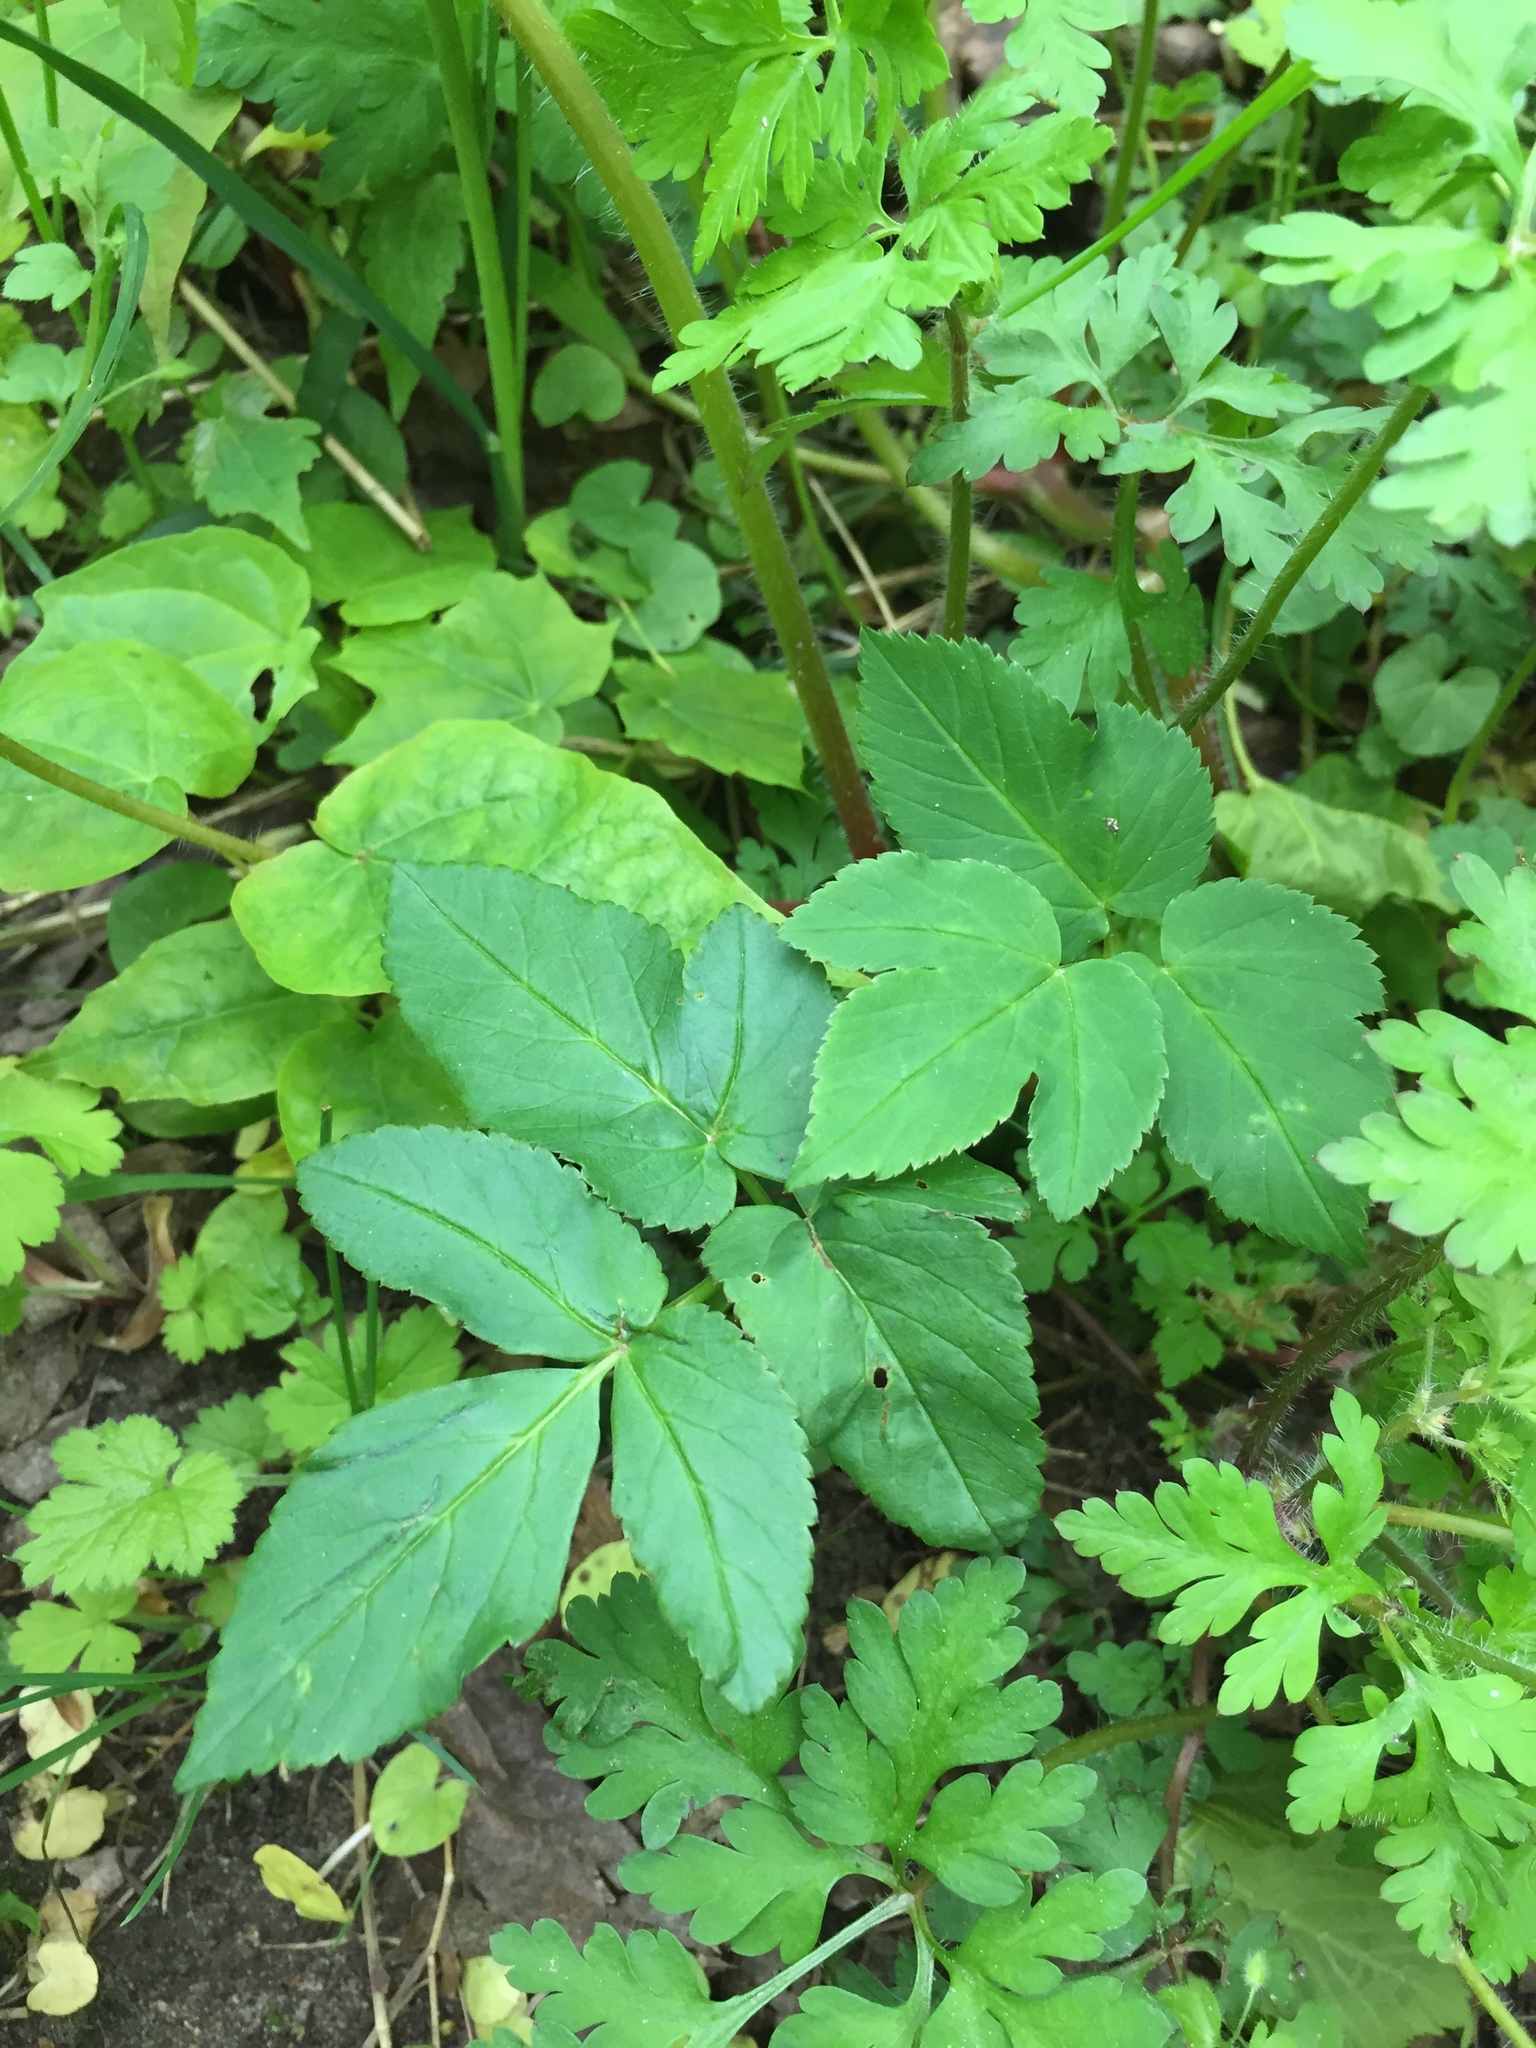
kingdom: Plantae
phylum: Tracheophyta
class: Magnoliopsida
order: Apiales
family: Apiaceae
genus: Aegopodium
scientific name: Aegopodium podagraria
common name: Ground-elder
